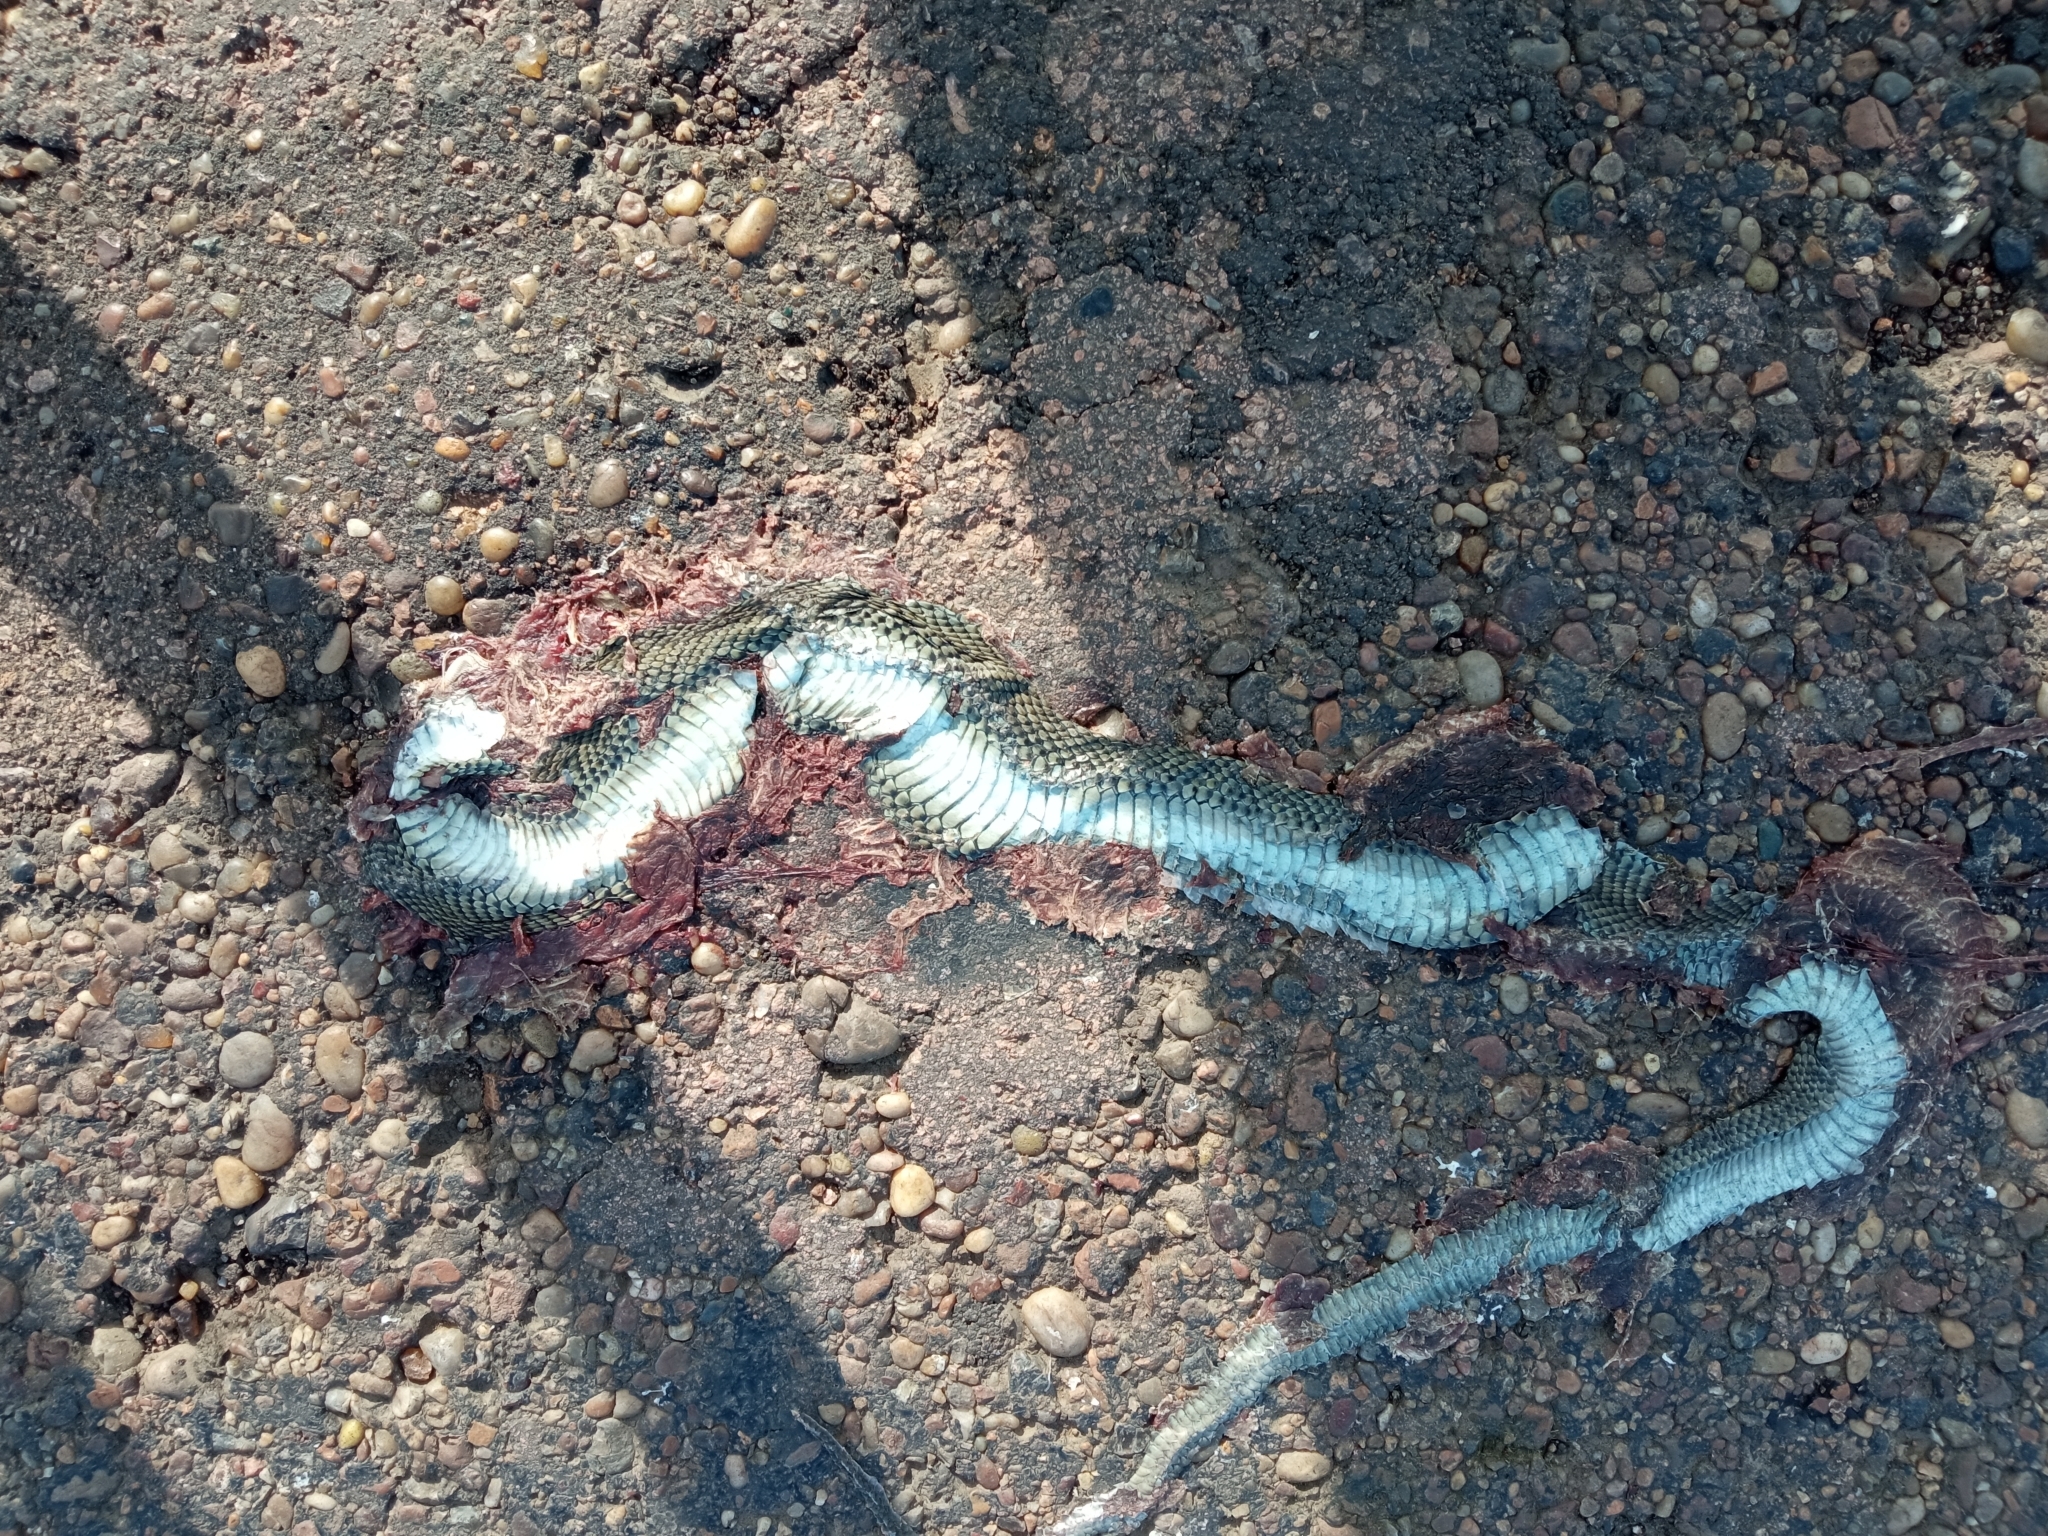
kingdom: Animalia
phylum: Chordata
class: Squamata
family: Colubridae
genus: Philodryas
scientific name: Philodryas patagoniensis
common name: Patagonia green racer
